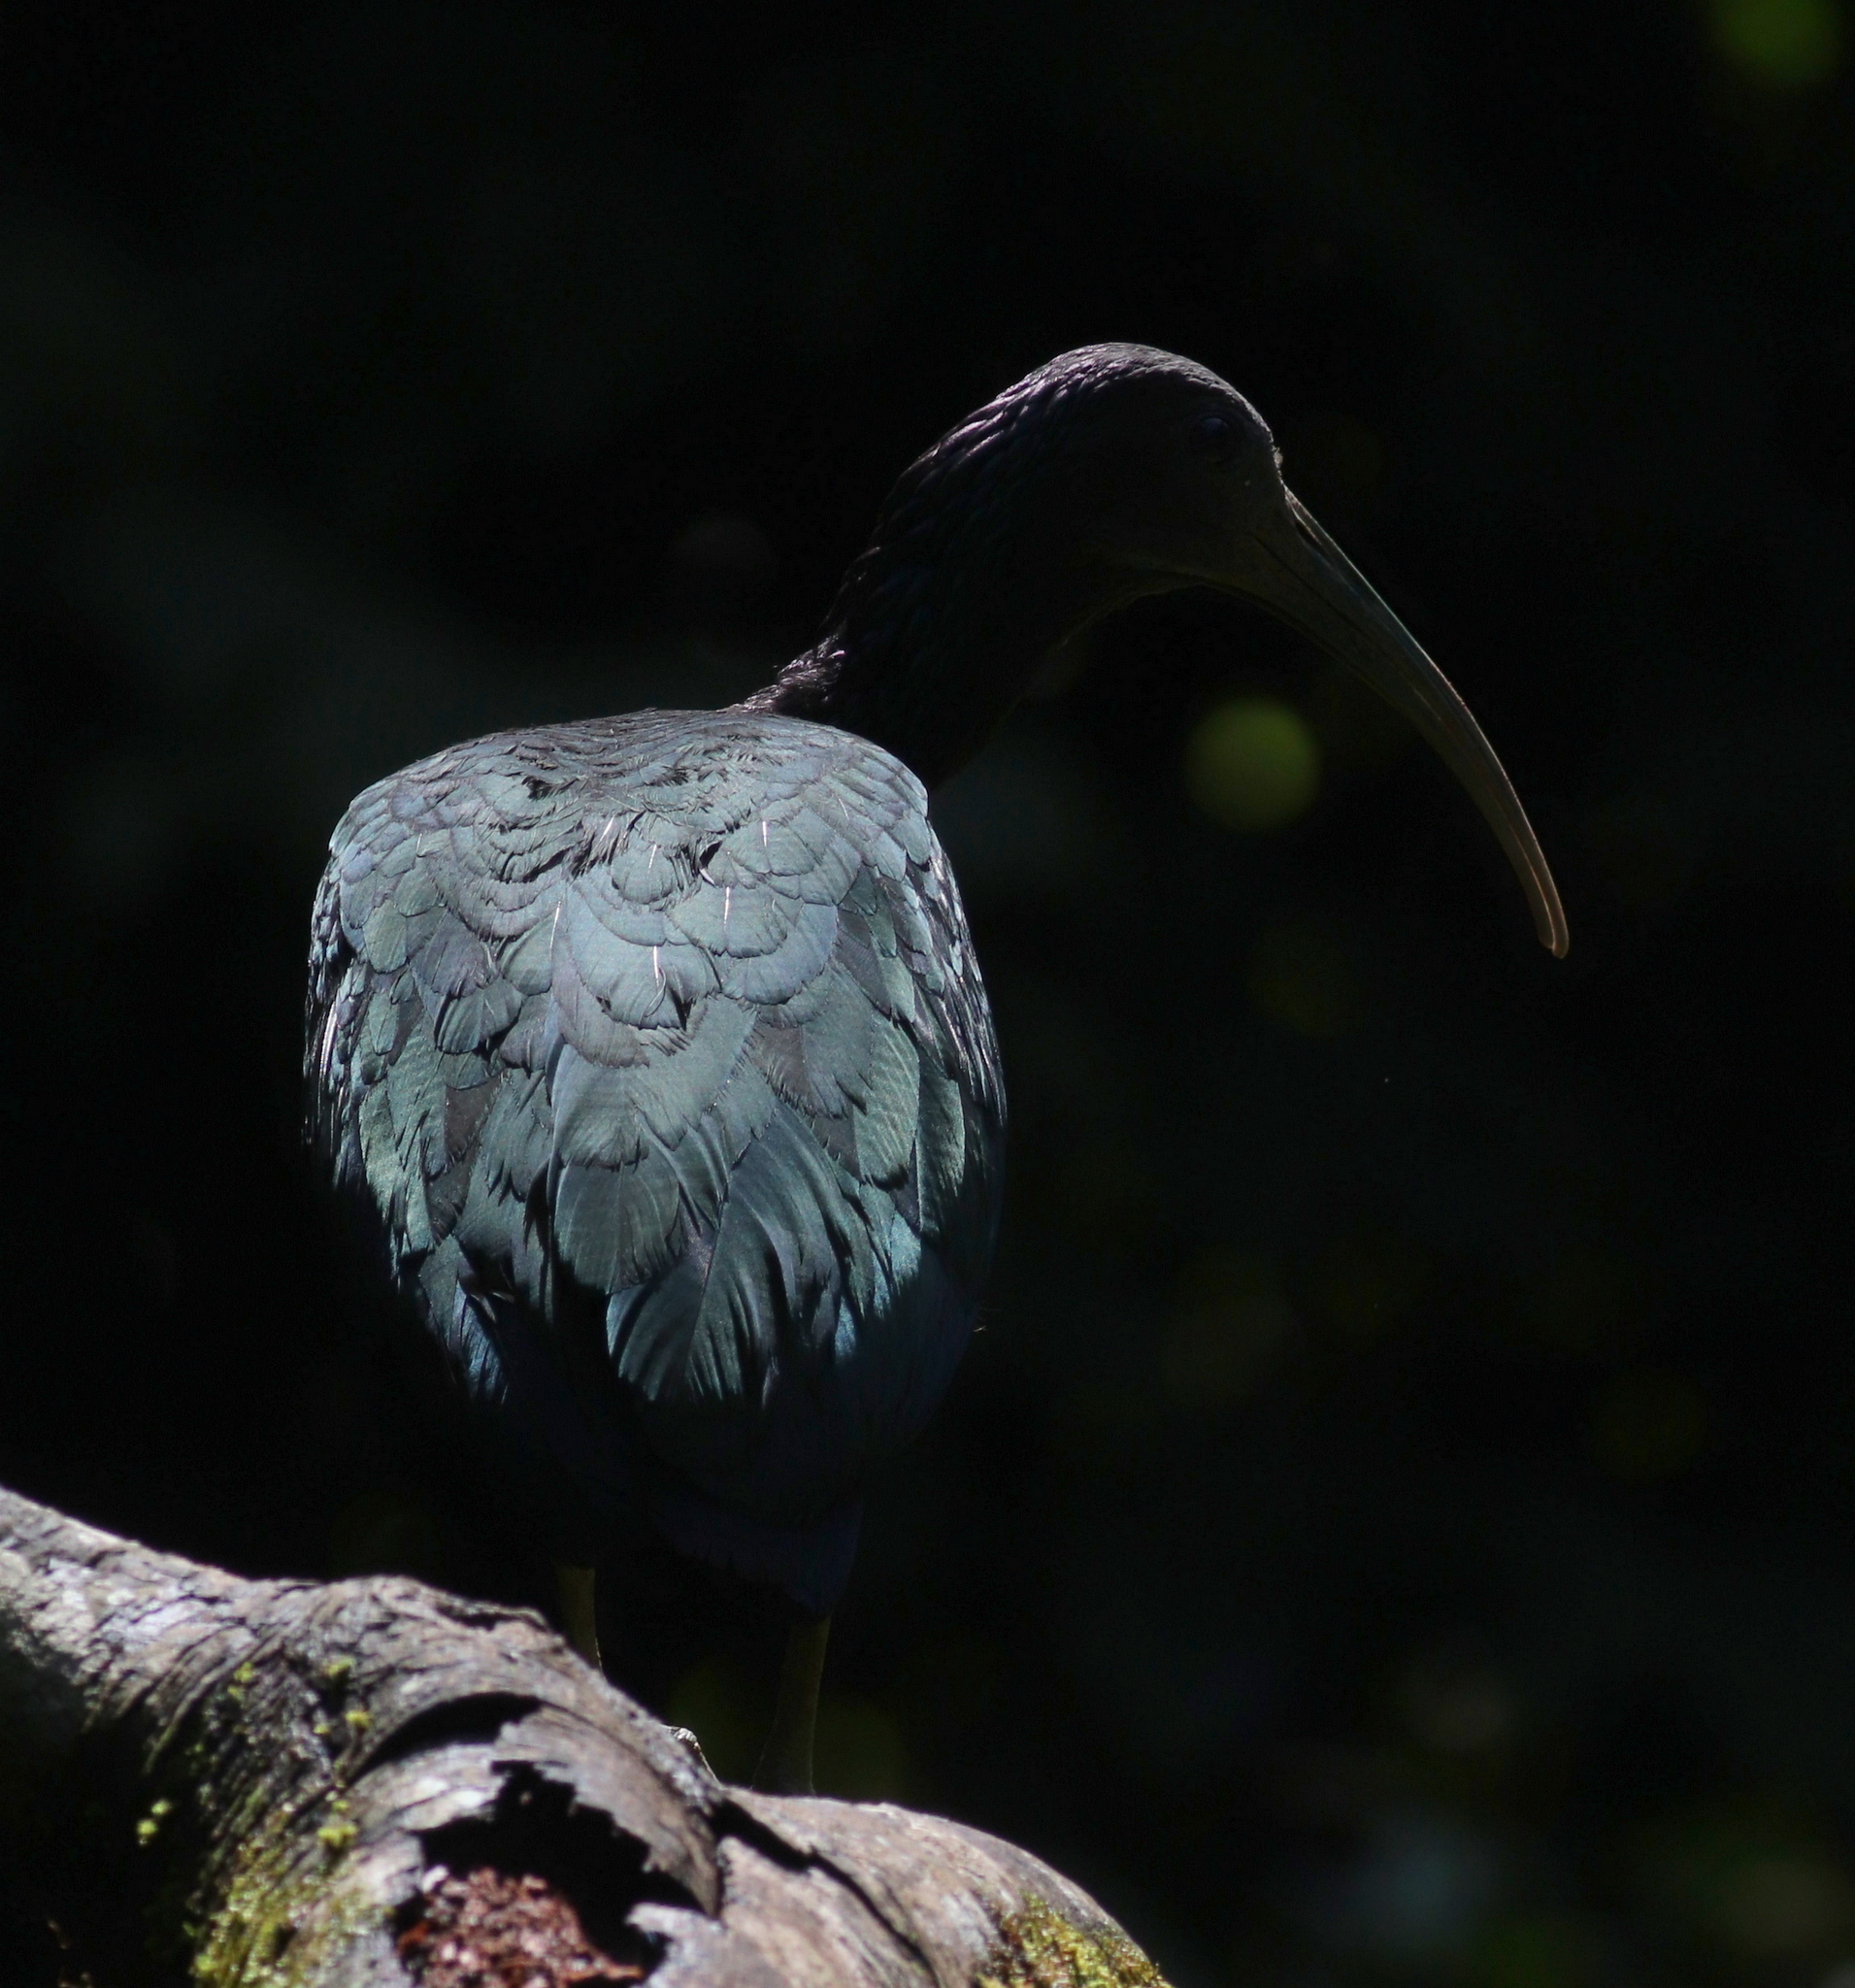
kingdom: Animalia
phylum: Chordata
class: Aves
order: Pelecaniformes
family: Threskiornithidae
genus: Mesembrinibis
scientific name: Mesembrinibis cayennensis
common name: Green ibis
